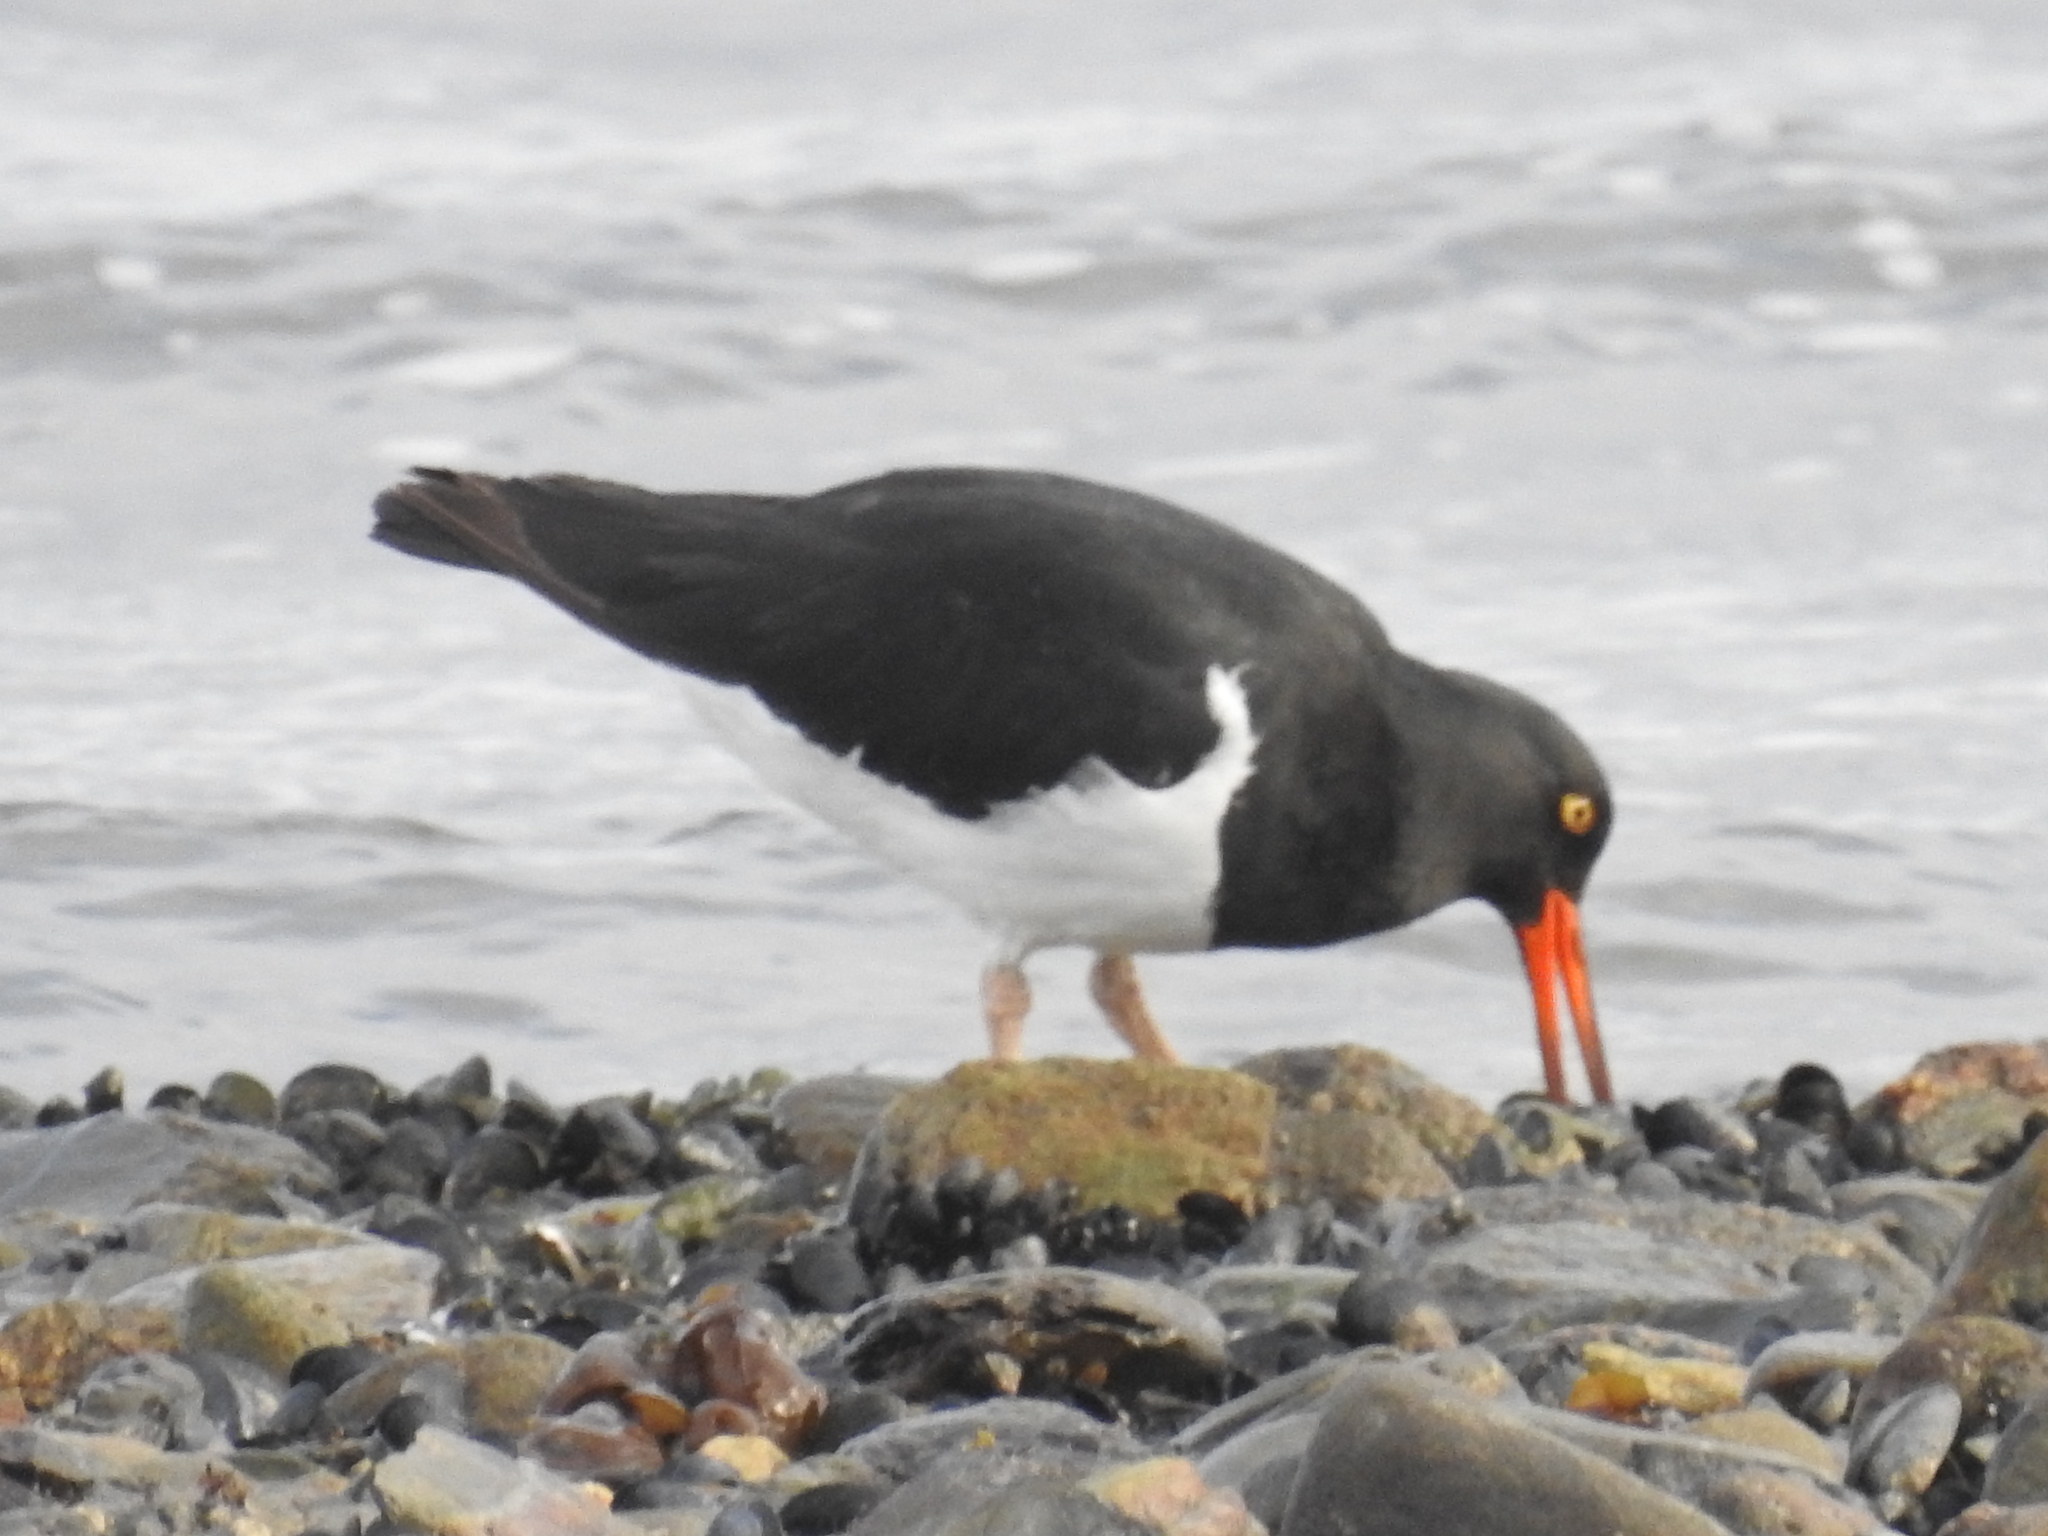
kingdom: Animalia
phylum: Chordata
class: Aves
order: Charadriiformes
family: Haematopodidae
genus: Haematopus
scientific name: Haematopus leucopodus
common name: Magellanic oystercatcher
